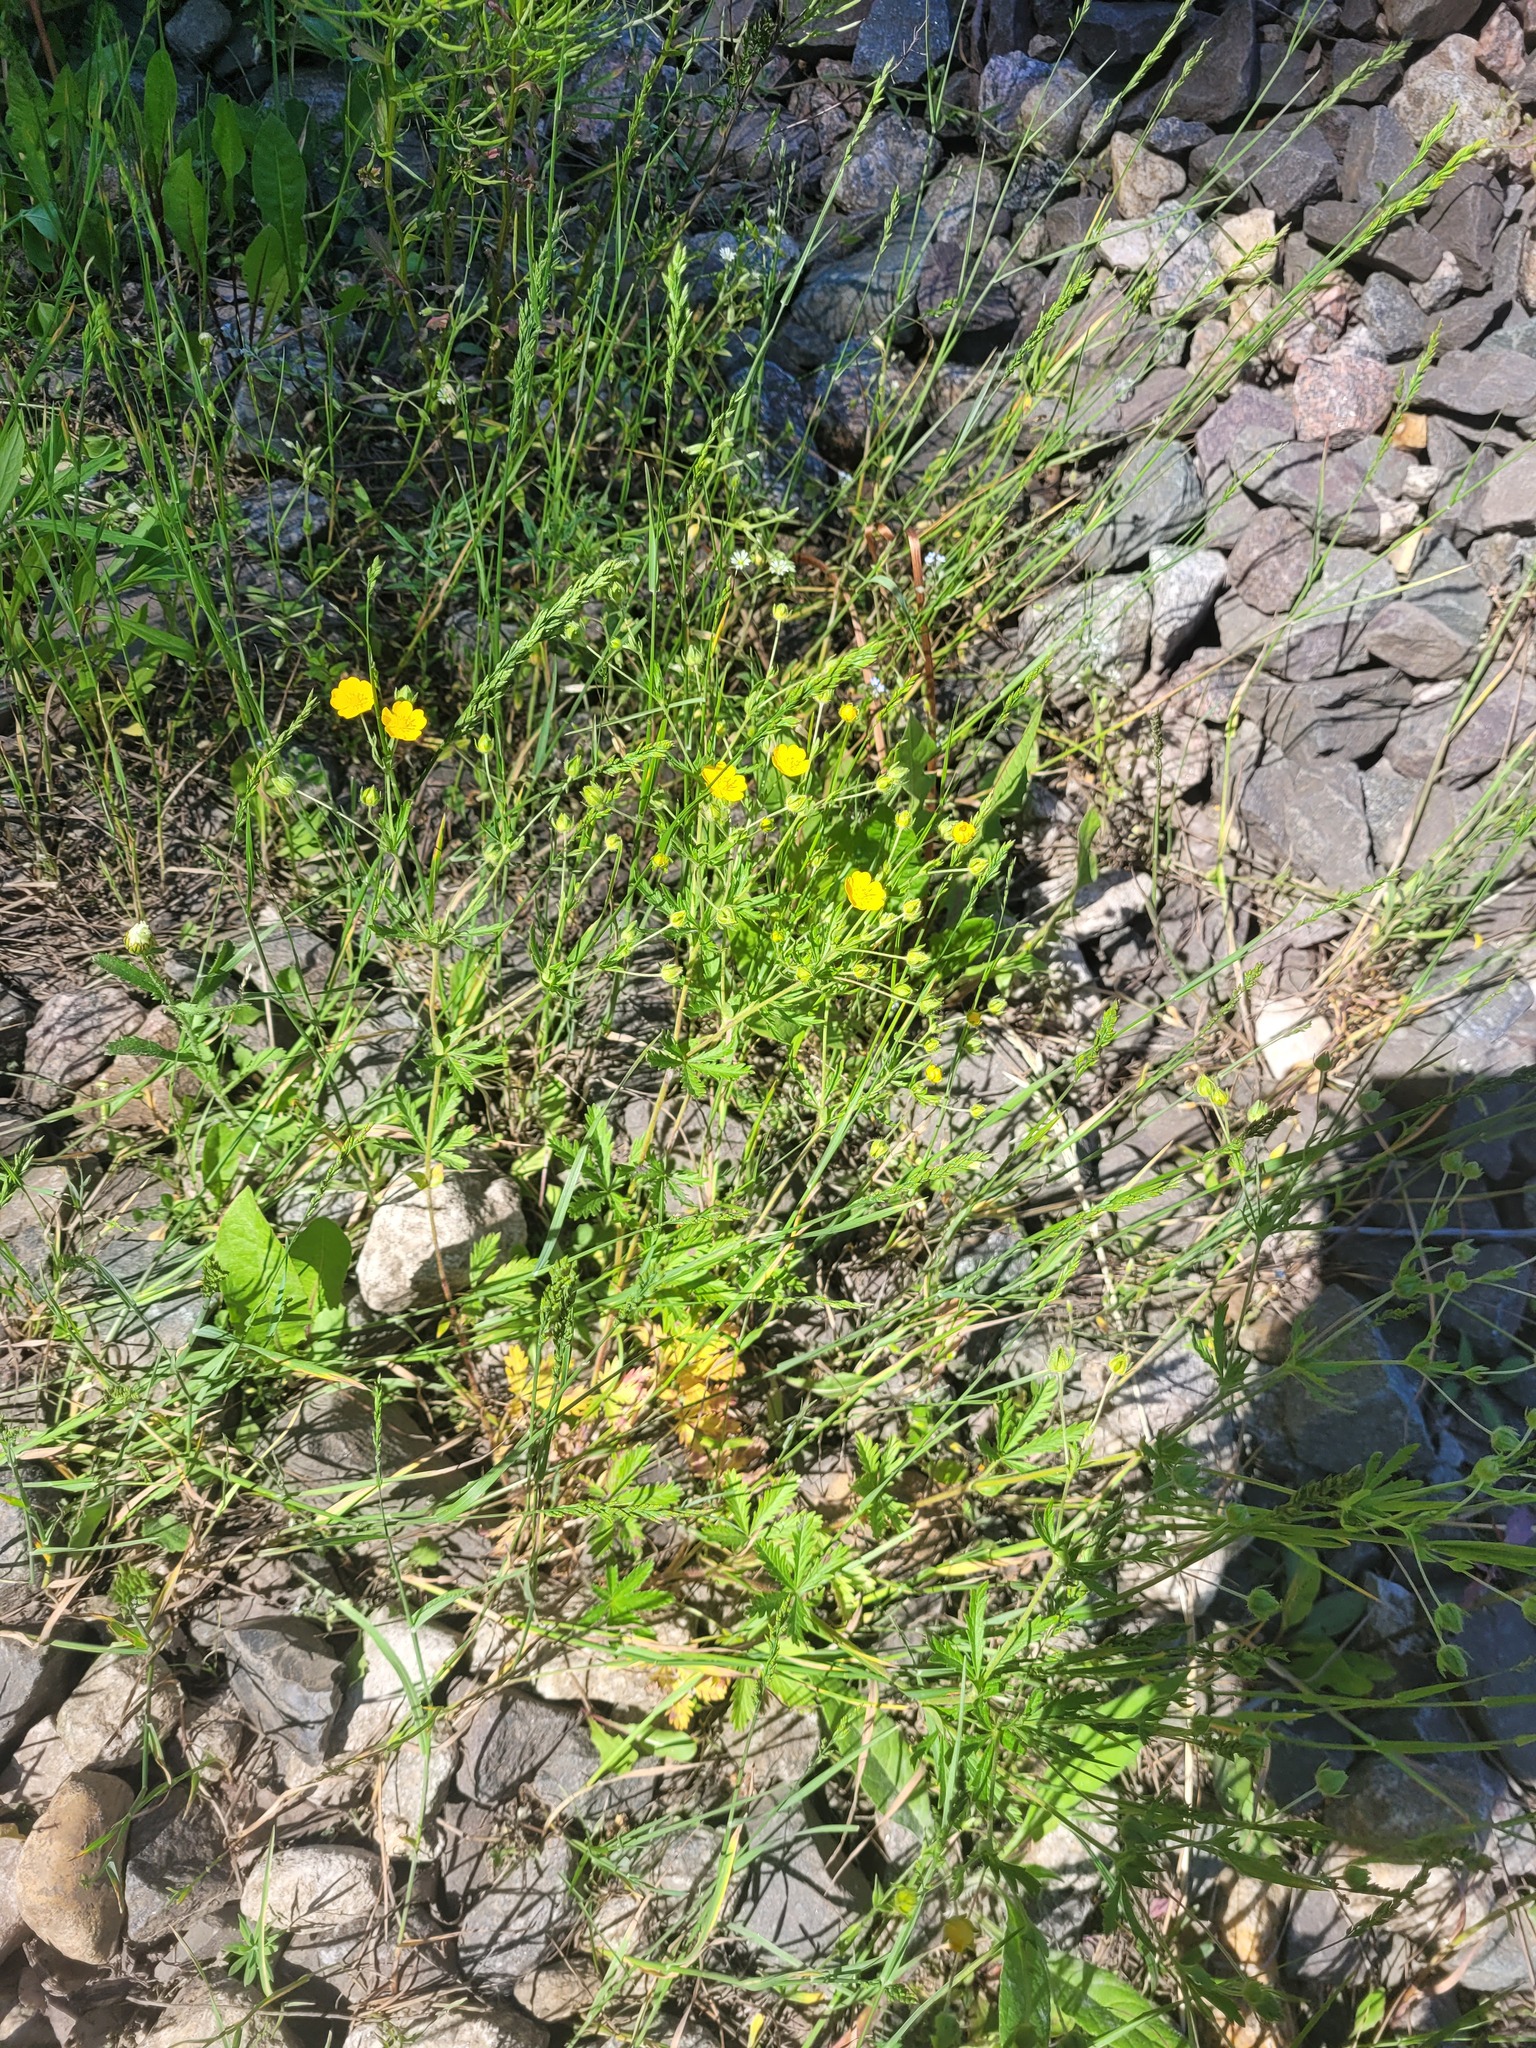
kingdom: Plantae
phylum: Tracheophyta
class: Magnoliopsida
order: Rosales
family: Rosaceae
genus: Potentilla
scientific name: Potentilla thuringiaca
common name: European cinquefoil
